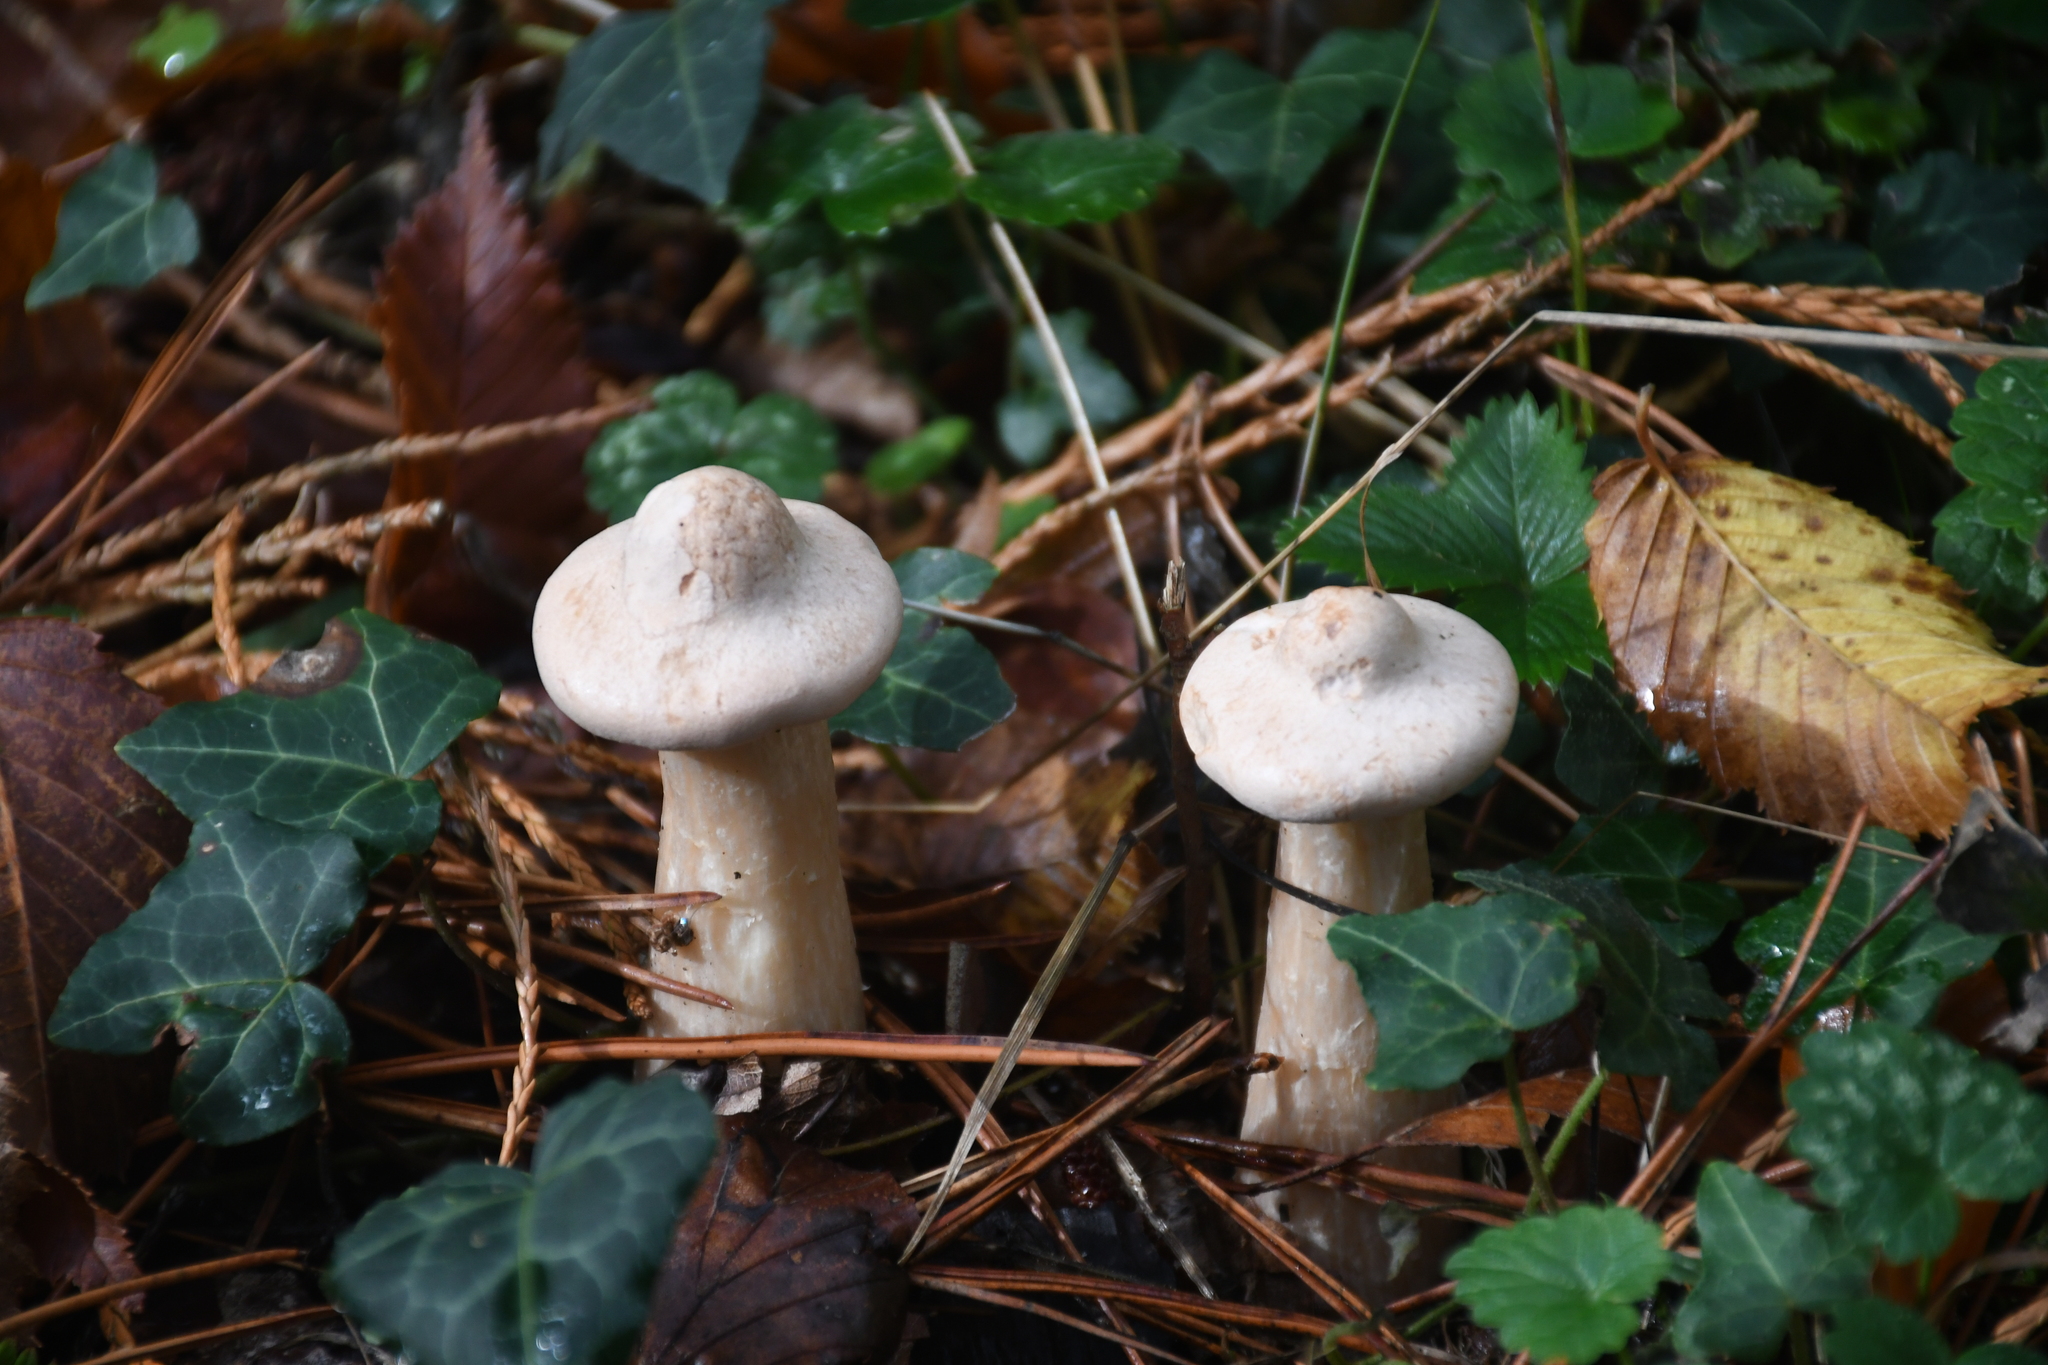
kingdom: Fungi
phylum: Basidiomycota
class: Agaricomycetes
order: Agaricales
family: Tricholomataceae
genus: Infundibulicybe
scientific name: Infundibulicybe geotropa
